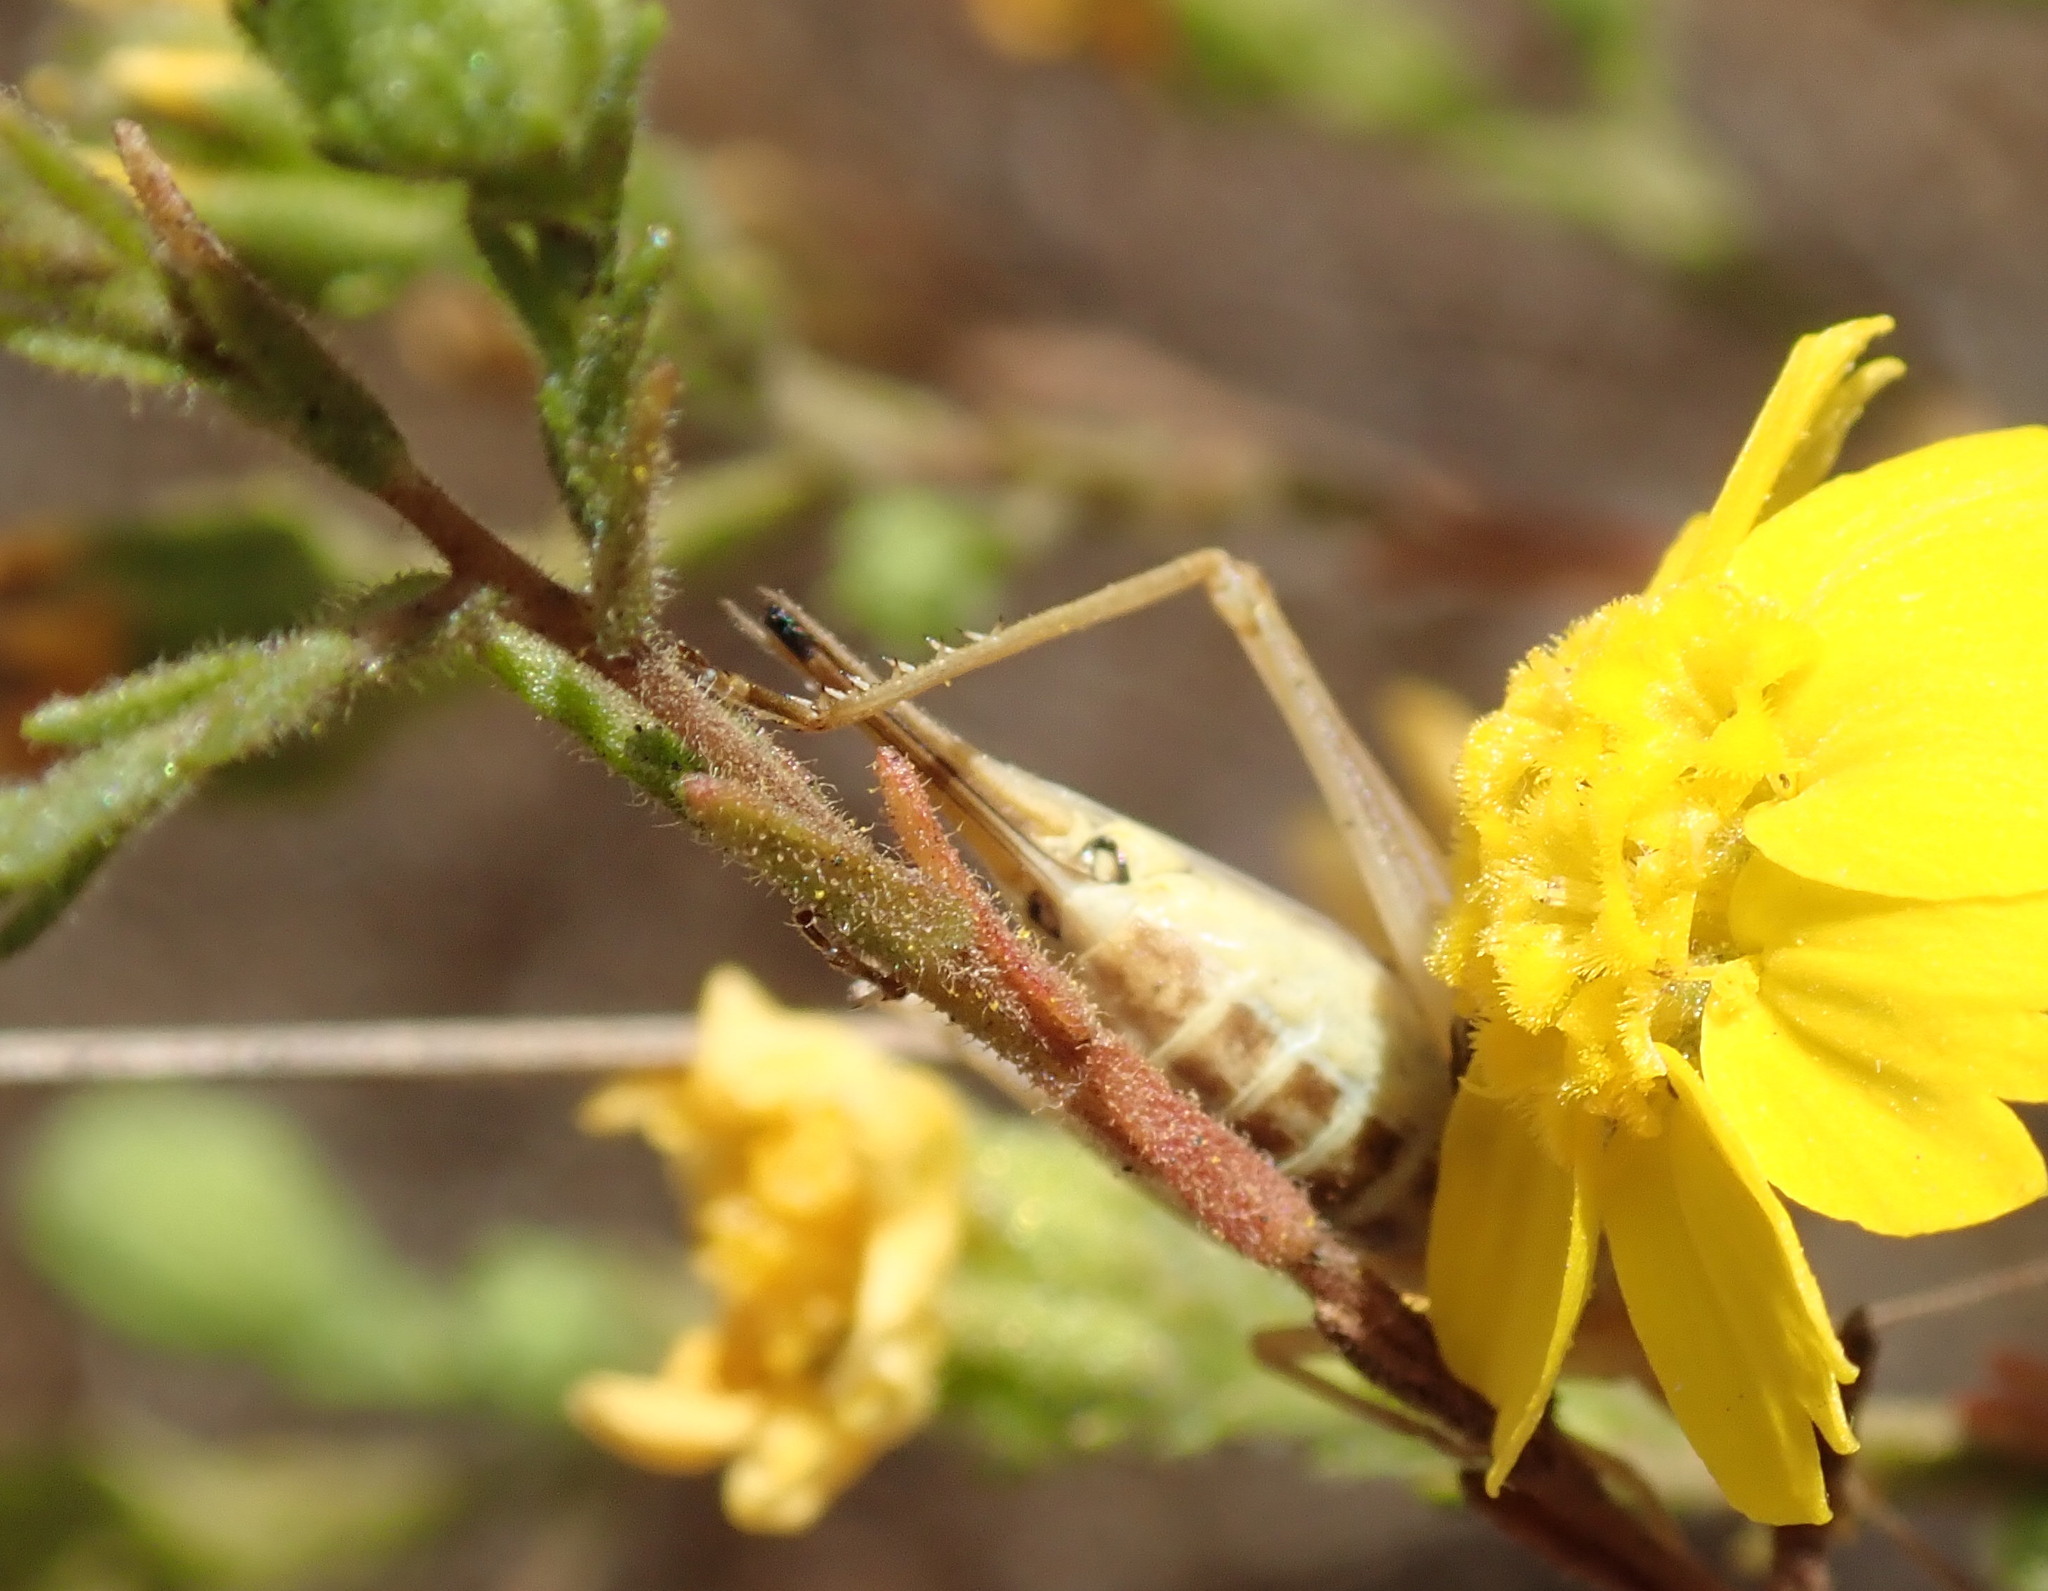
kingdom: Animalia
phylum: Arthropoda
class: Insecta
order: Orthoptera
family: Gryllidae
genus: Oecanthus
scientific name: Oecanthus californicus
